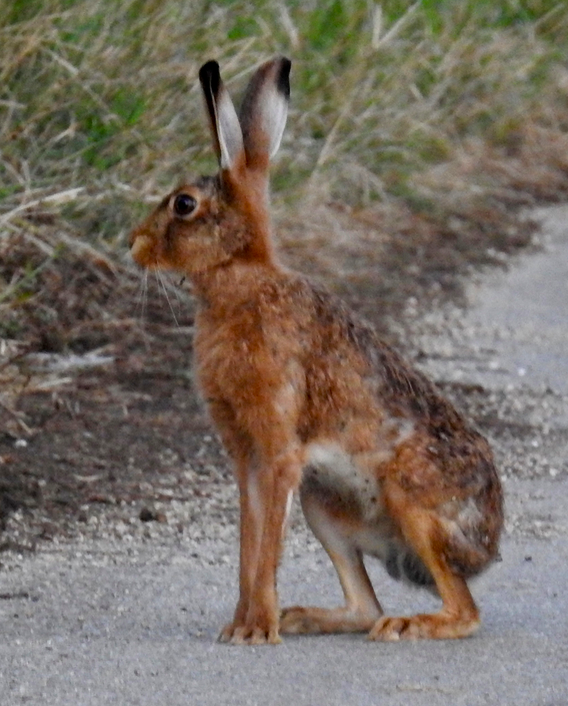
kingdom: Animalia
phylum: Chordata
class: Mammalia
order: Lagomorpha
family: Leporidae
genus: Lepus
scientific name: Lepus europaeus
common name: European hare
